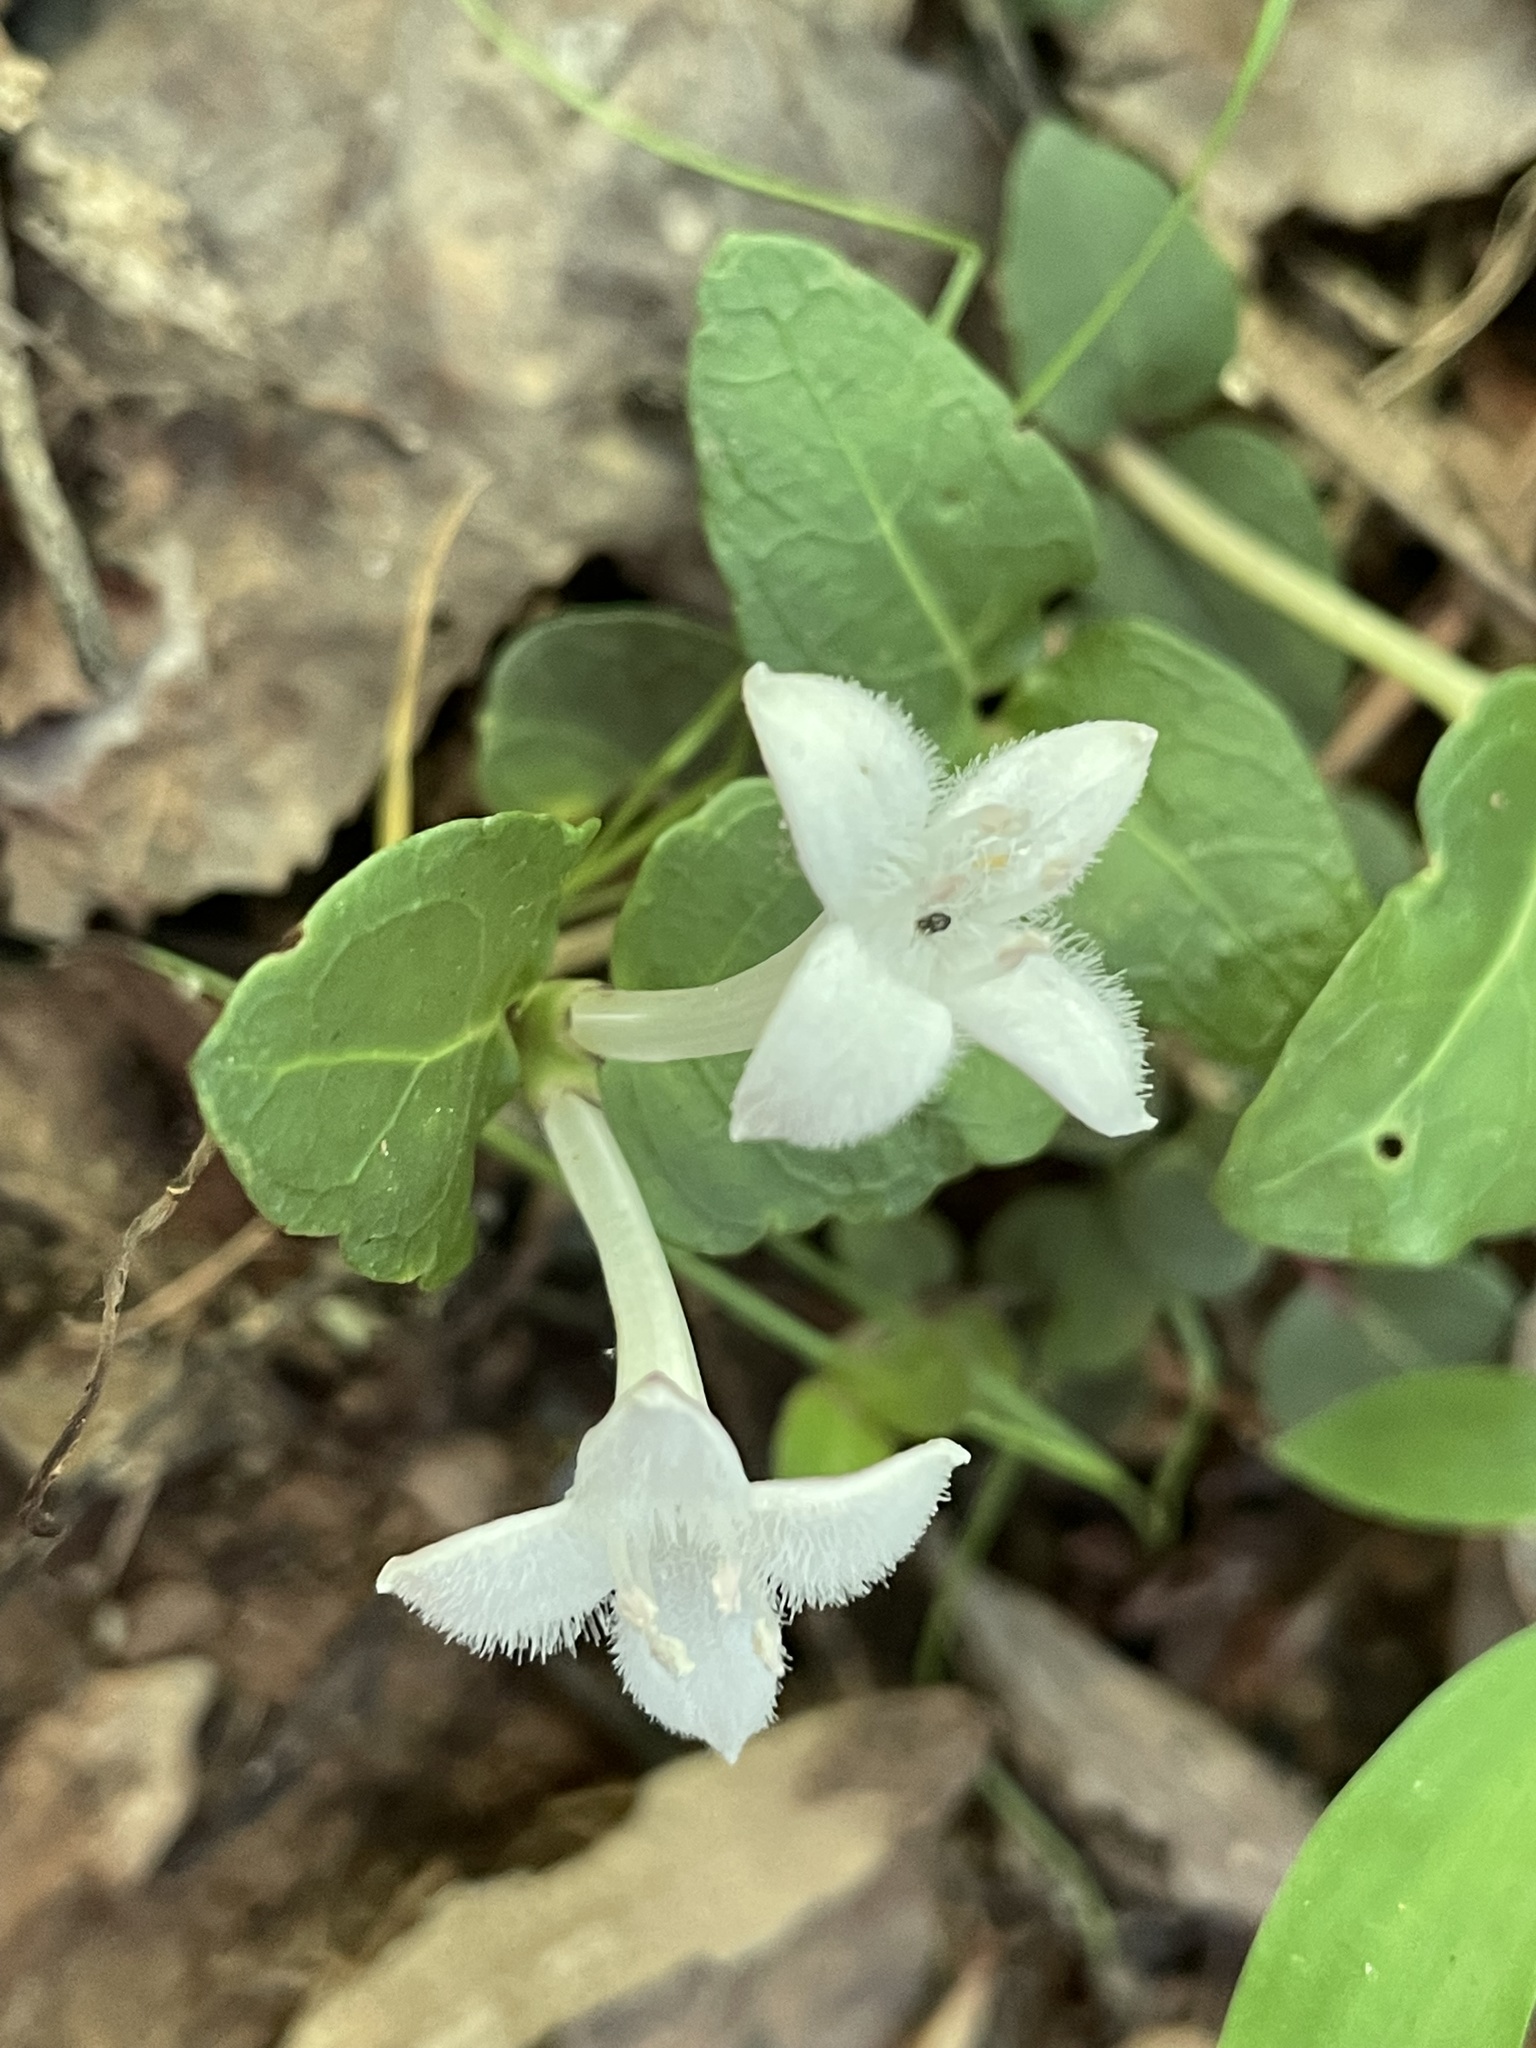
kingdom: Plantae
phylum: Tracheophyta
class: Magnoliopsida
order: Gentianales
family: Rubiaceae
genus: Mitchella
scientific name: Mitchella repens
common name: Partridge-berry
